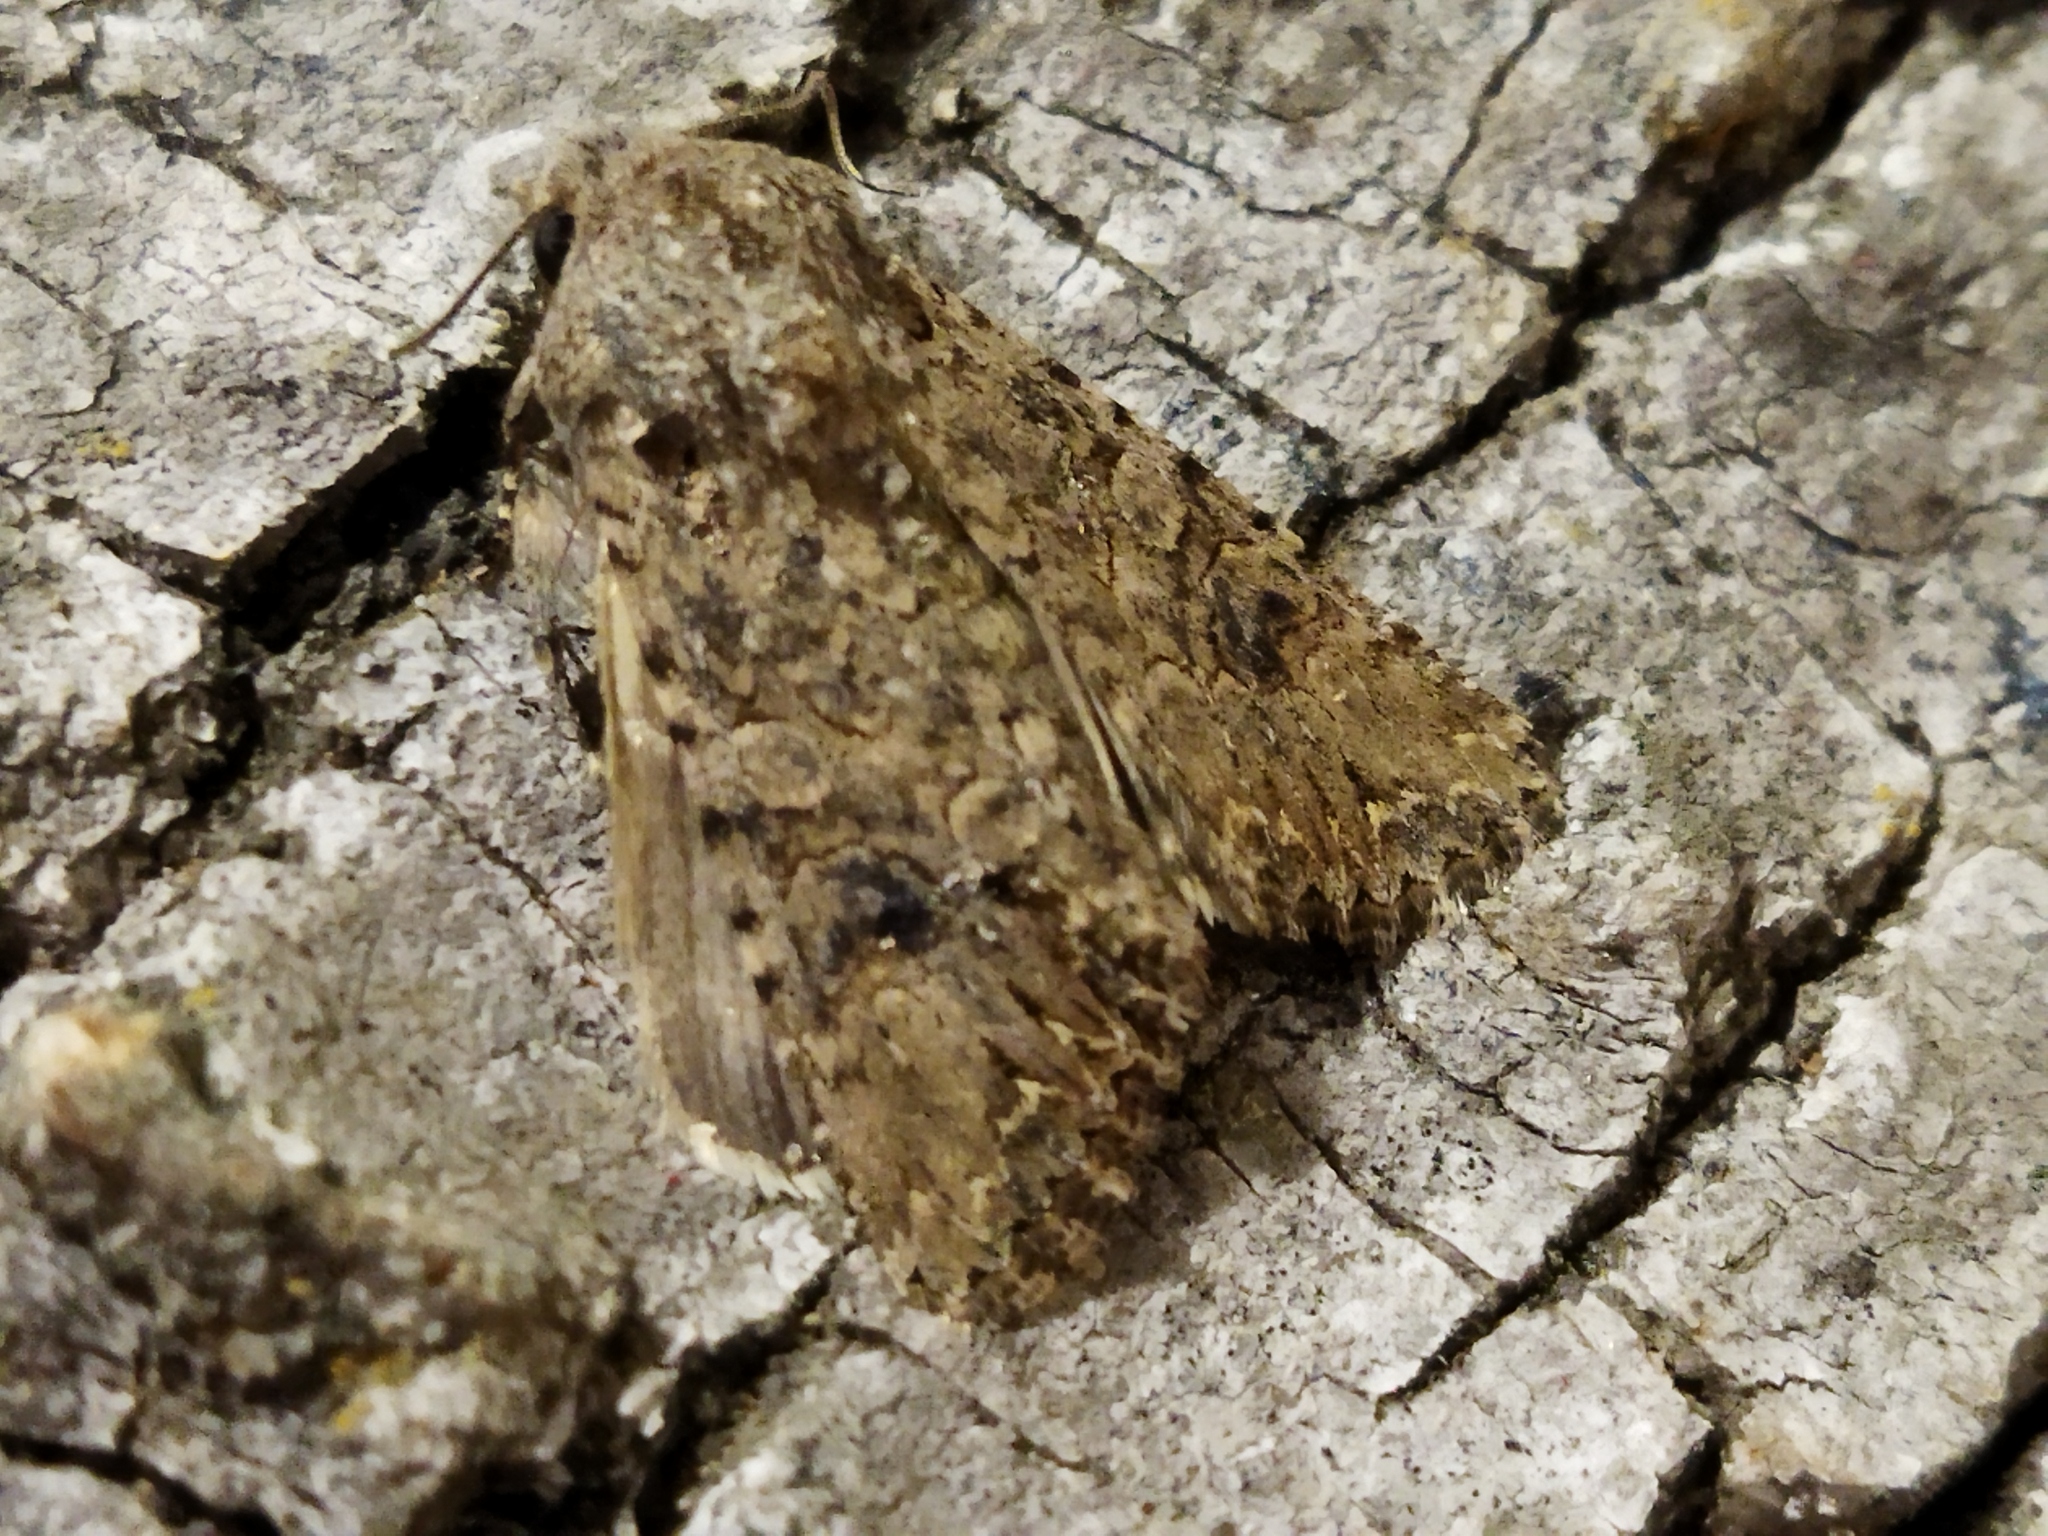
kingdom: Animalia
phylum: Arthropoda
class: Insecta
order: Lepidoptera
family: Noctuidae
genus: Anarta
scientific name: Anarta trifolii
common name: Clover cutworm moth
